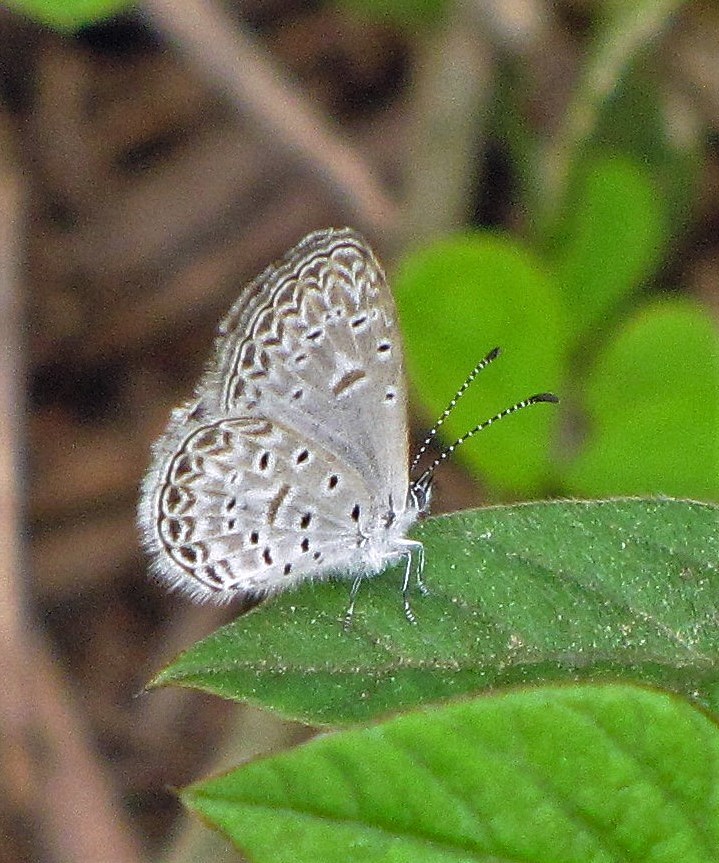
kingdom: Animalia
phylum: Arthropoda
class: Insecta
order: Lepidoptera
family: Lycaenidae
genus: Lycaena
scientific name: Lycaena cyna
